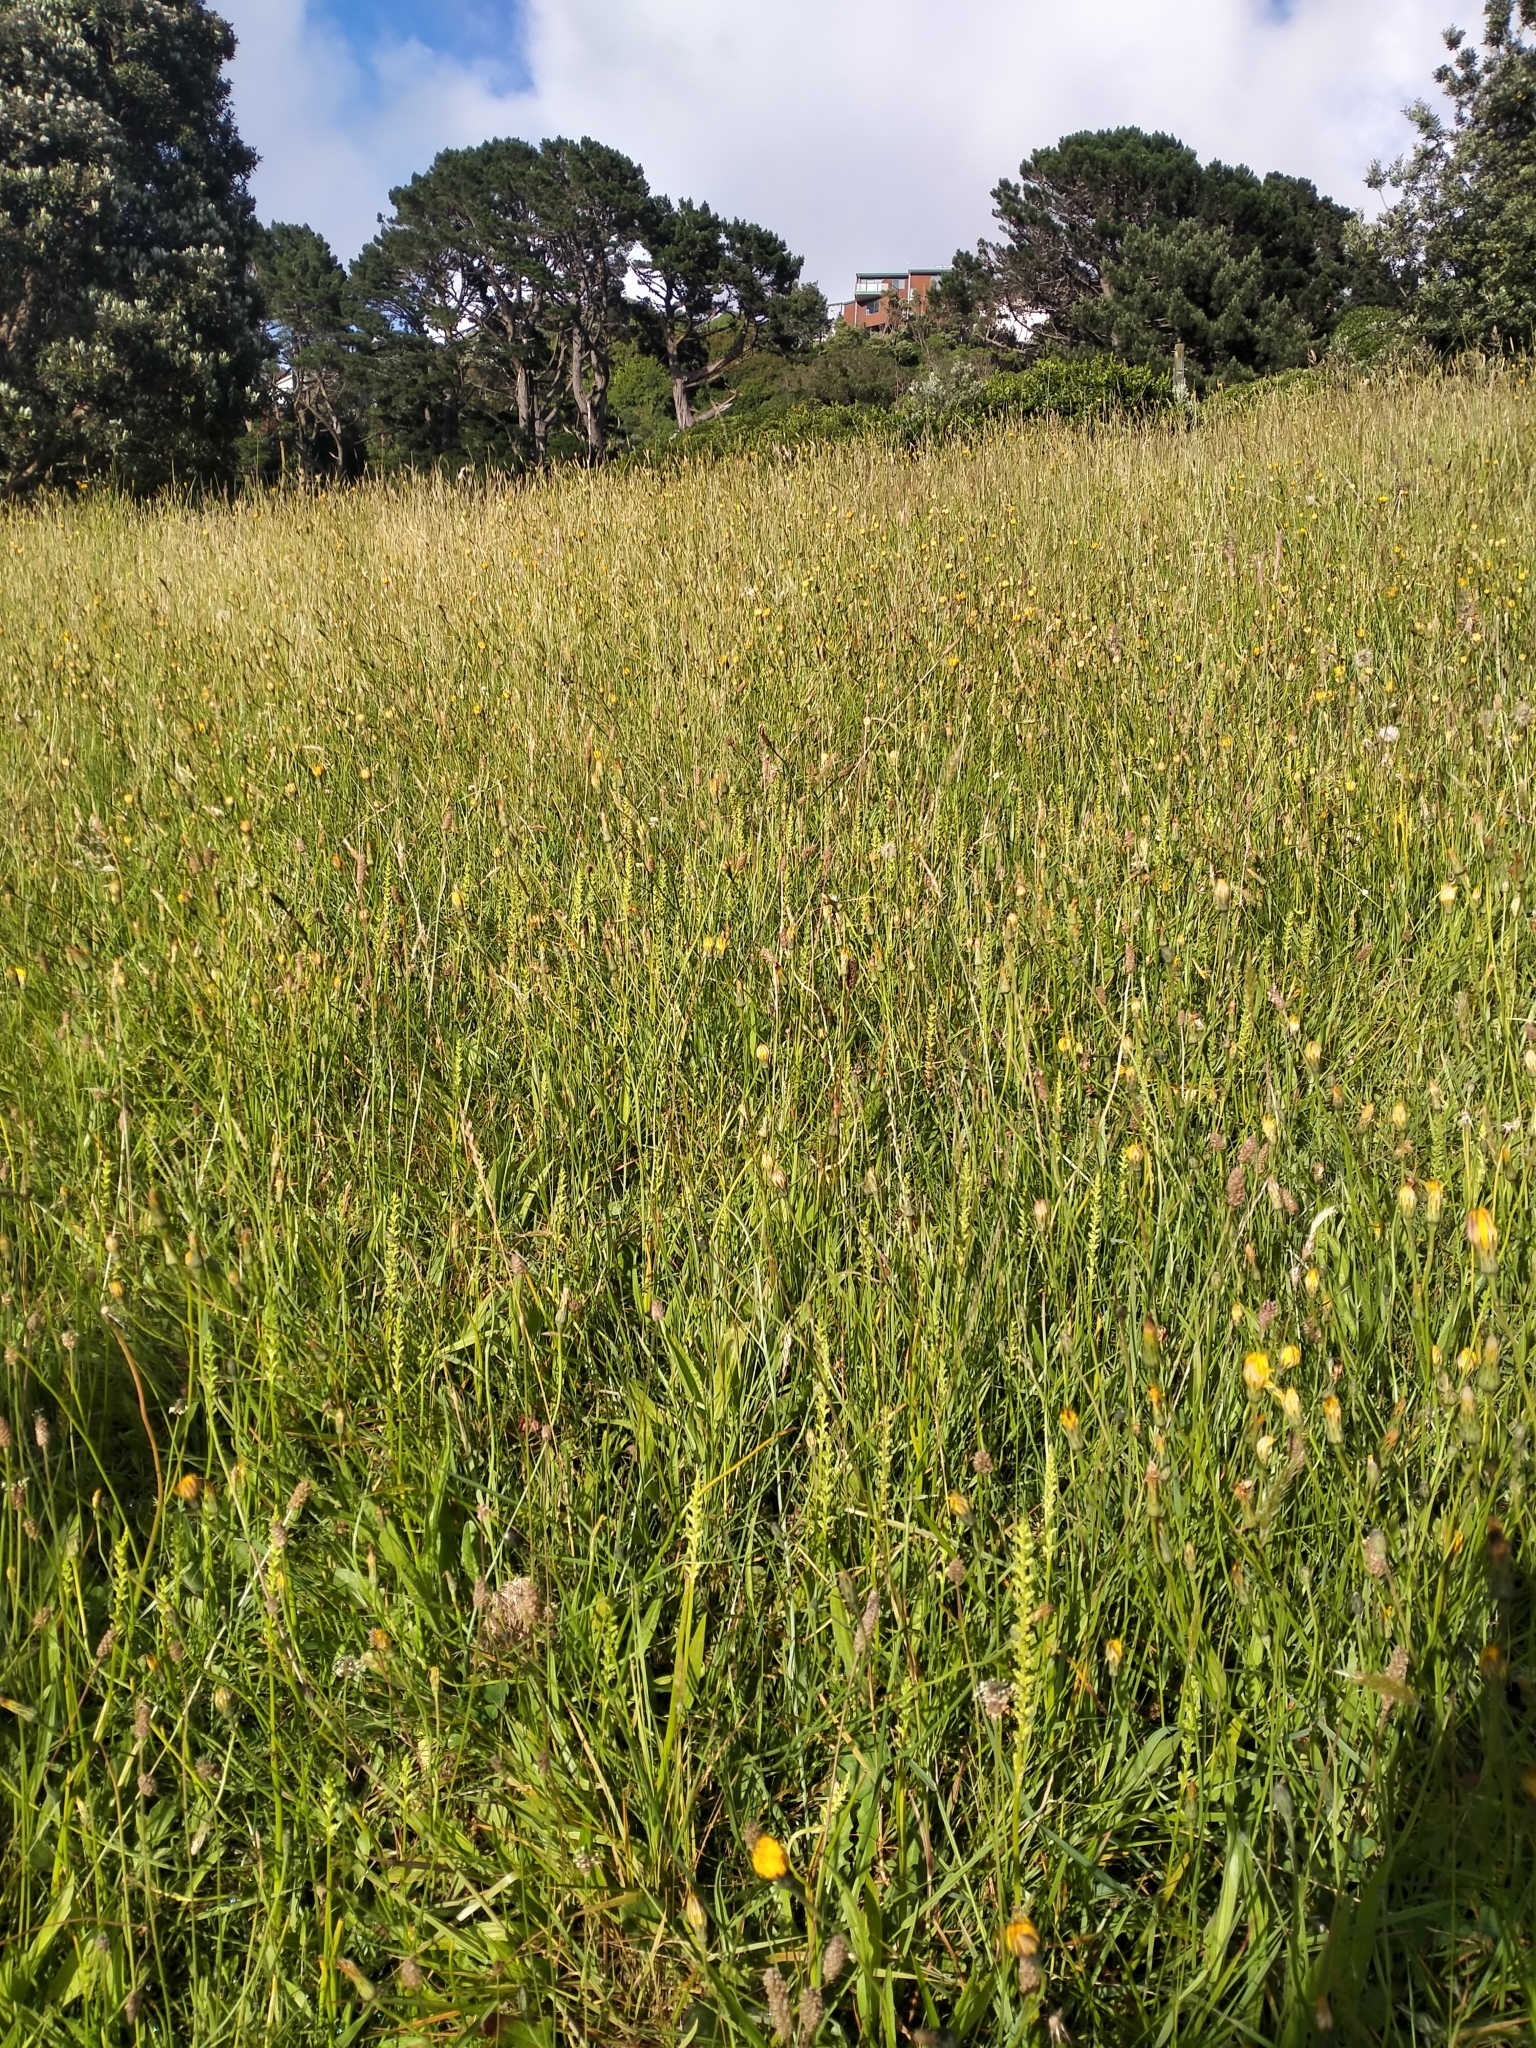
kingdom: Plantae
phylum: Tracheophyta
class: Liliopsida
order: Asparagales
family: Orchidaceae
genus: Microtis
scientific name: Microtis unifolia
